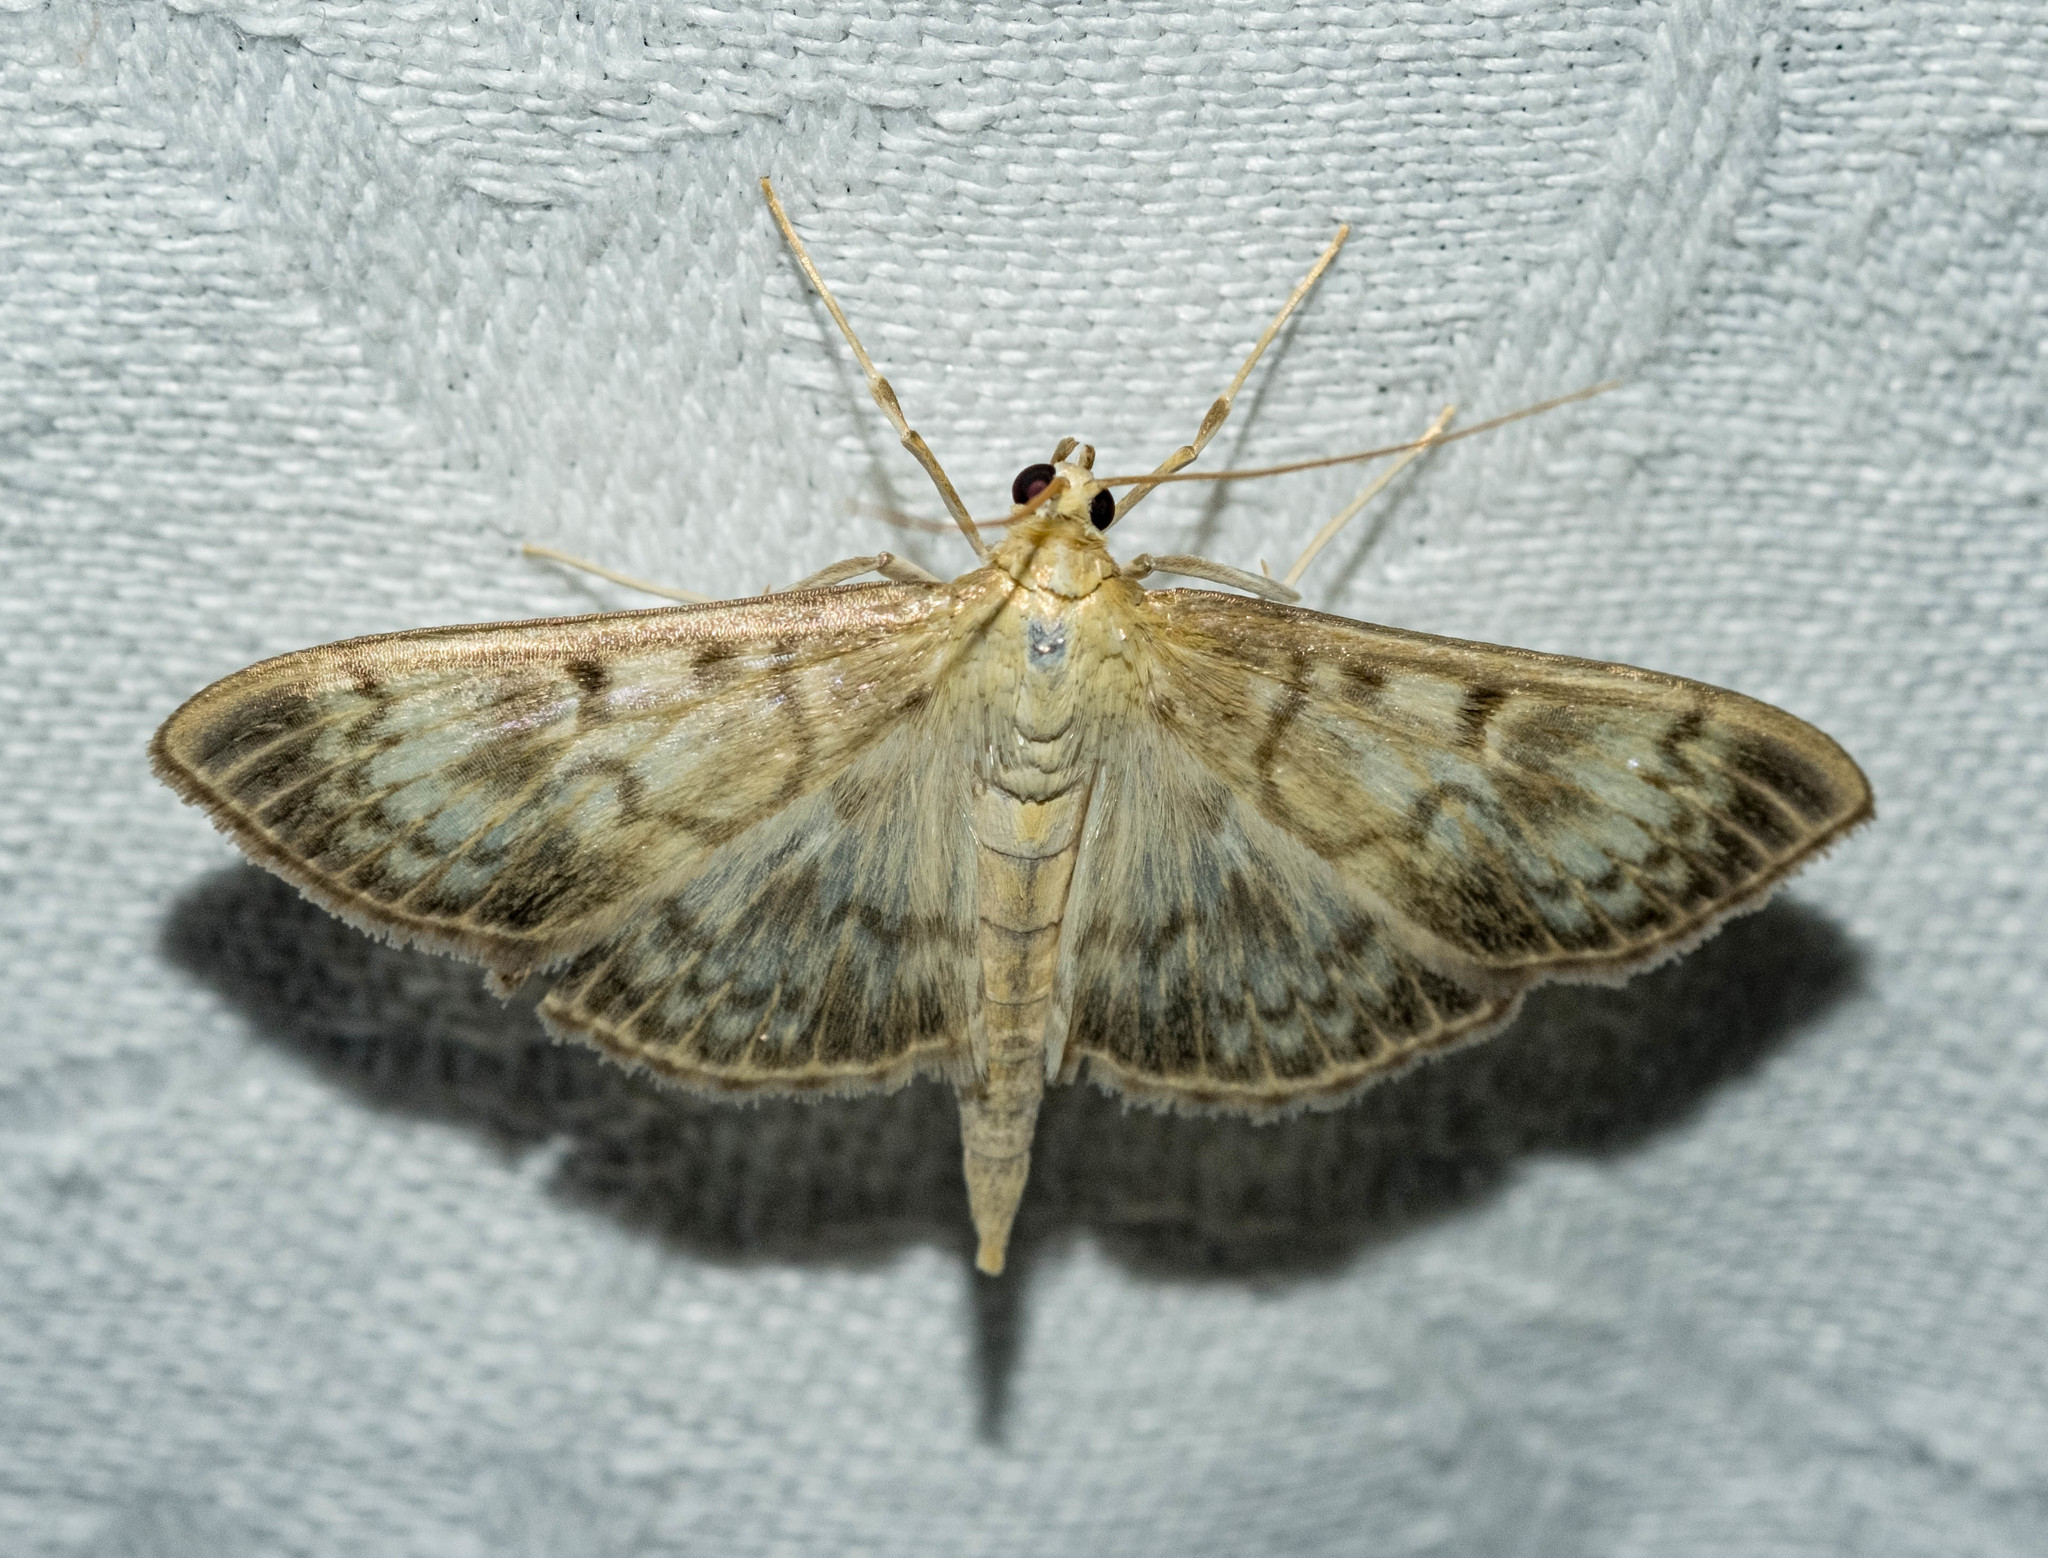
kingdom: Animalia
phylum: Arthropoda
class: Insecta
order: Lepidoptera
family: Crambidae
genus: Patania
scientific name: Patania ruralis
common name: Mother of pearl
